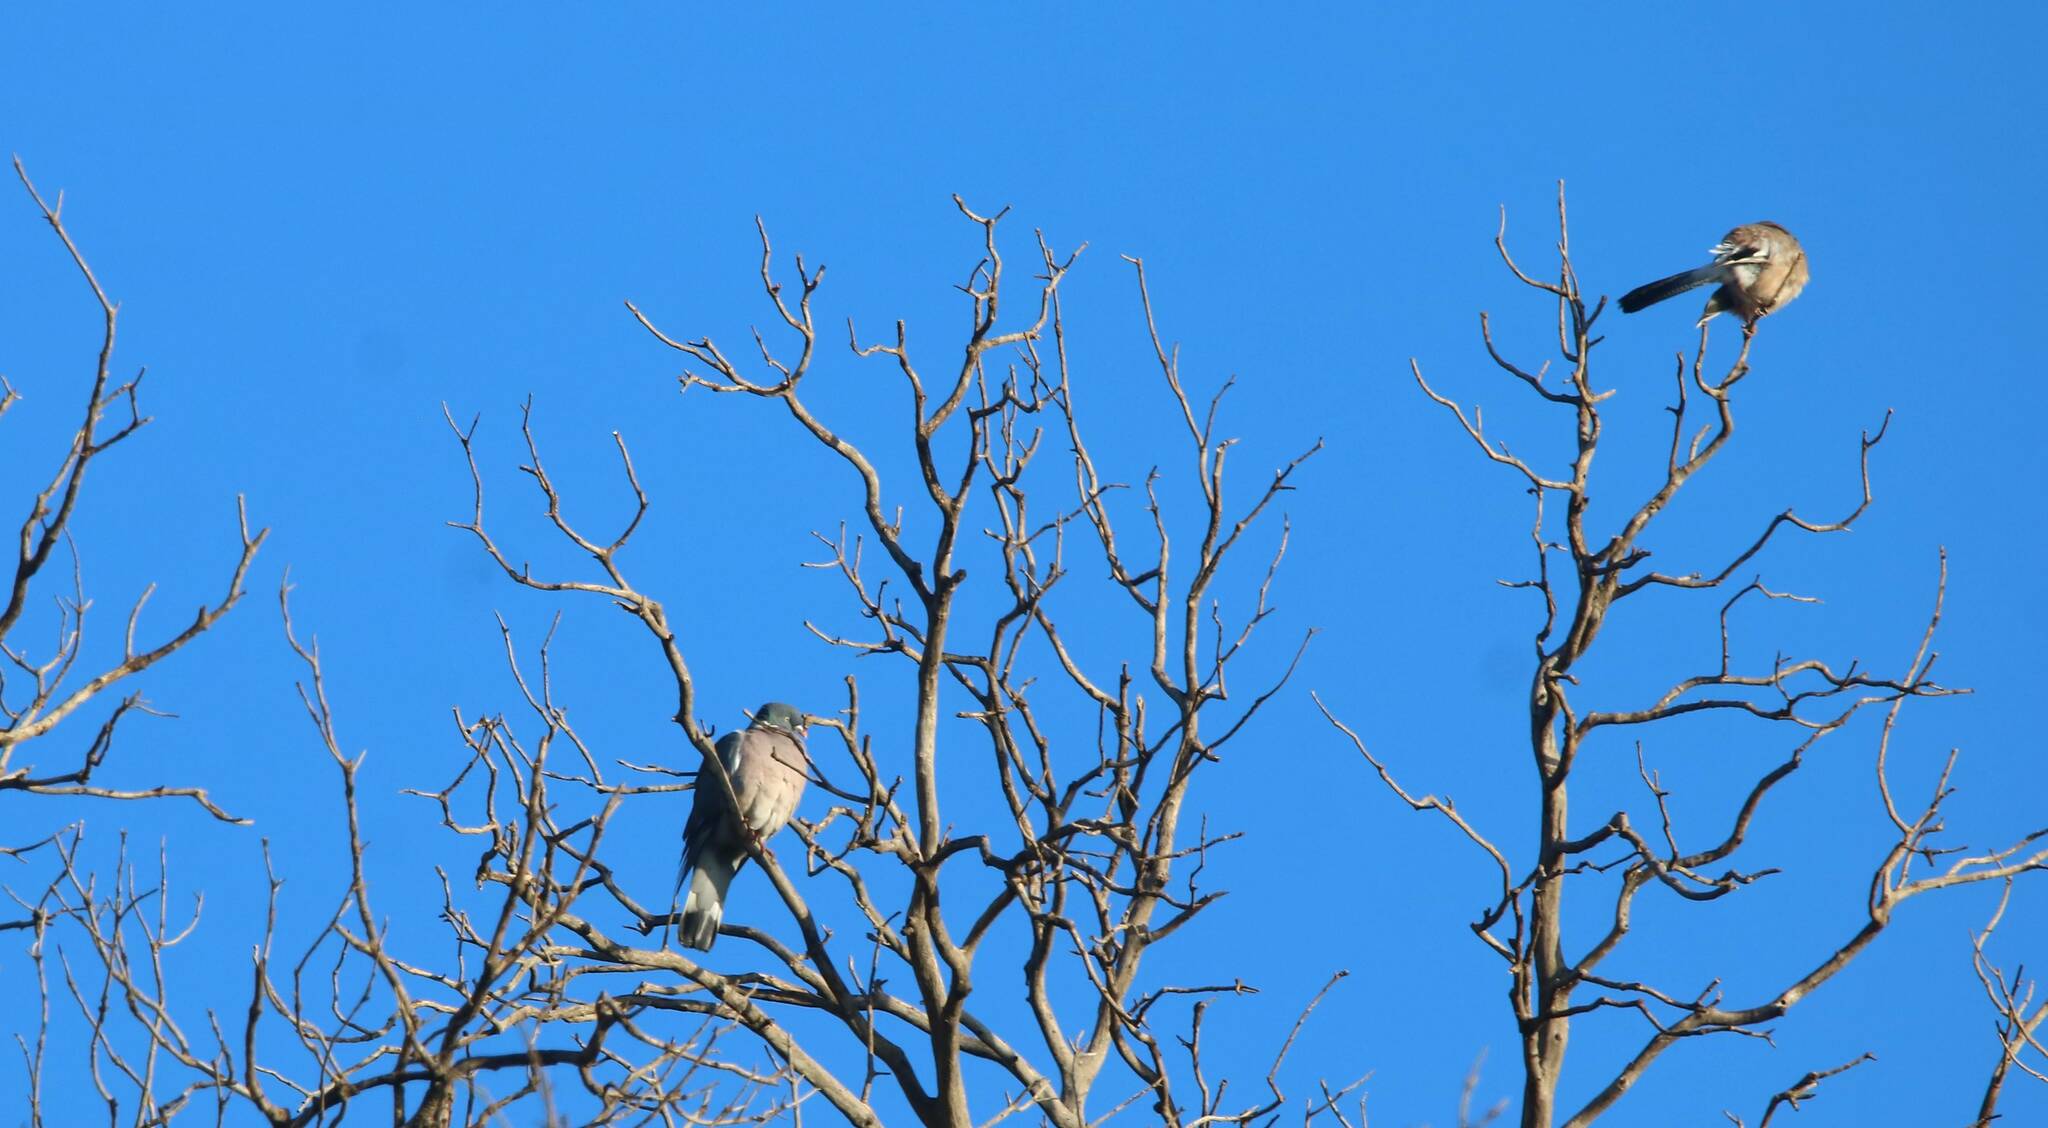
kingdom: Animalia
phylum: Chordata
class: Aves
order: Columbiformes
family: Columbidae
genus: Columba
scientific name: Columba palumbus
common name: Common wood pigeon
